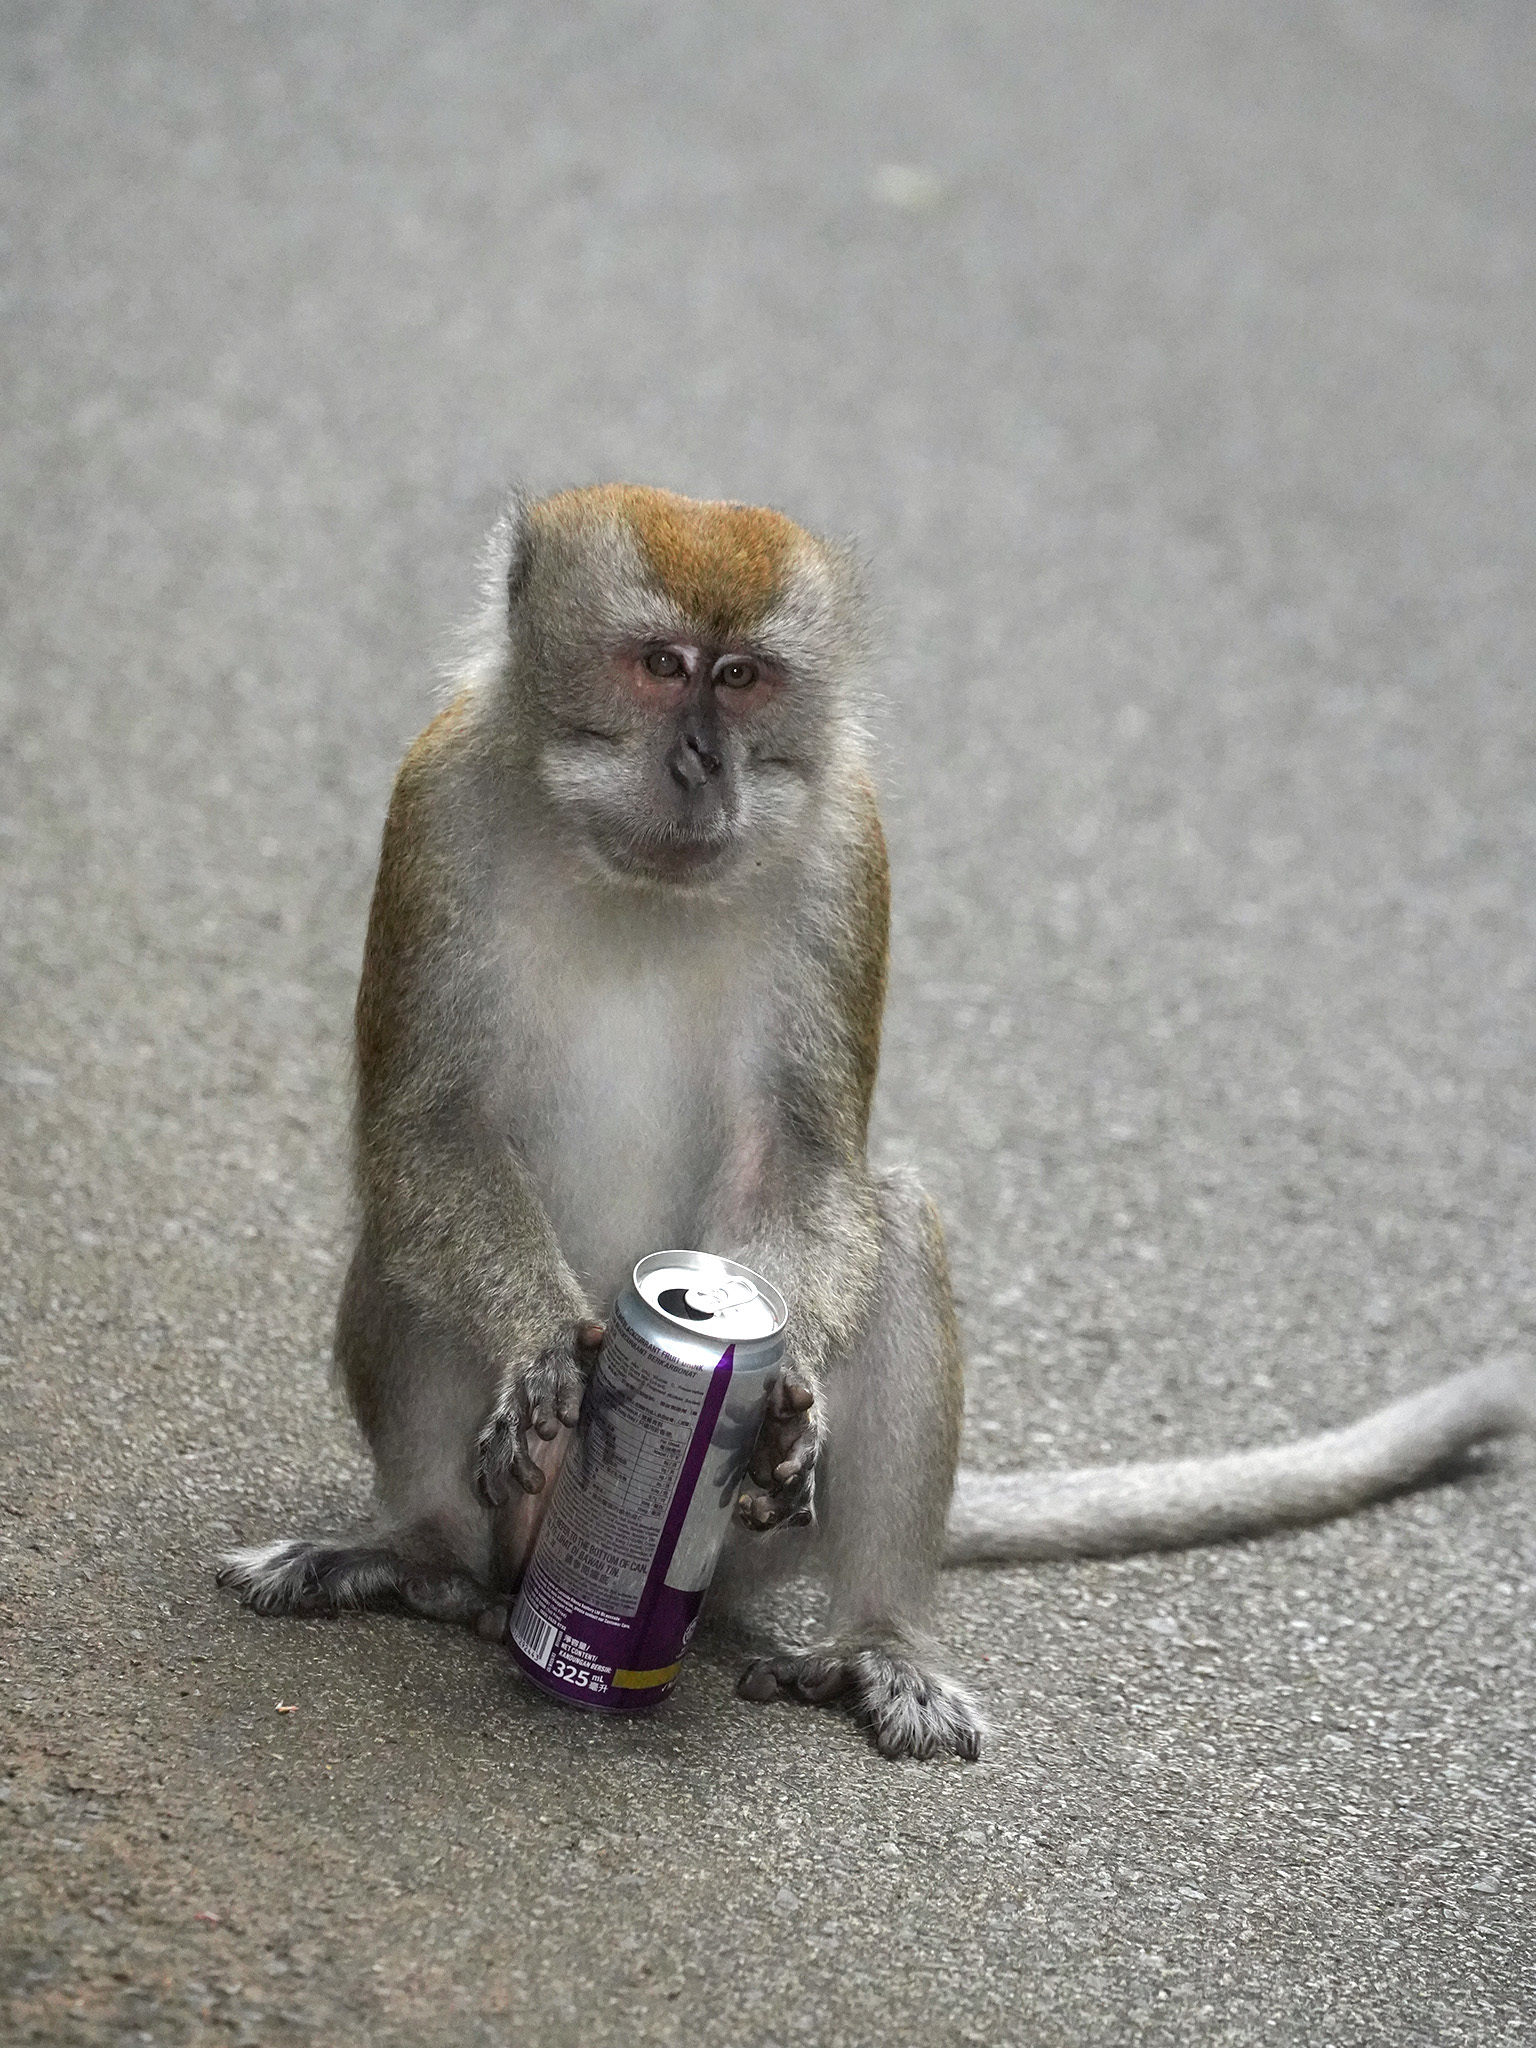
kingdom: Animalia
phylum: Chordata
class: Mammalia
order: Primates
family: Cercopithecidae
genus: Macaca
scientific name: Macaca fascicularis
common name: Crab-eating macaque
